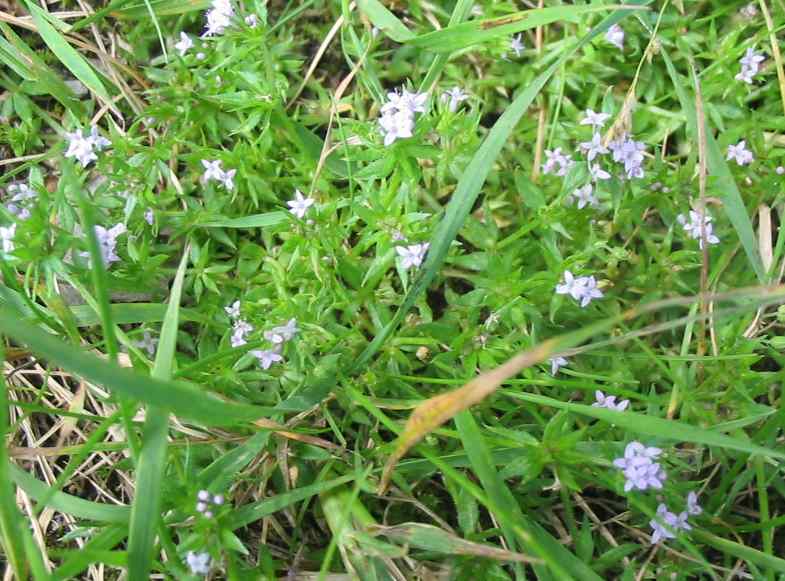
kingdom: Plantae
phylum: Tracheophyta
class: Magnoliopsida
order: Gentianales
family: Rubiaceae
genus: Sherardia
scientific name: Sherardia arvensis
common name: Field madder
